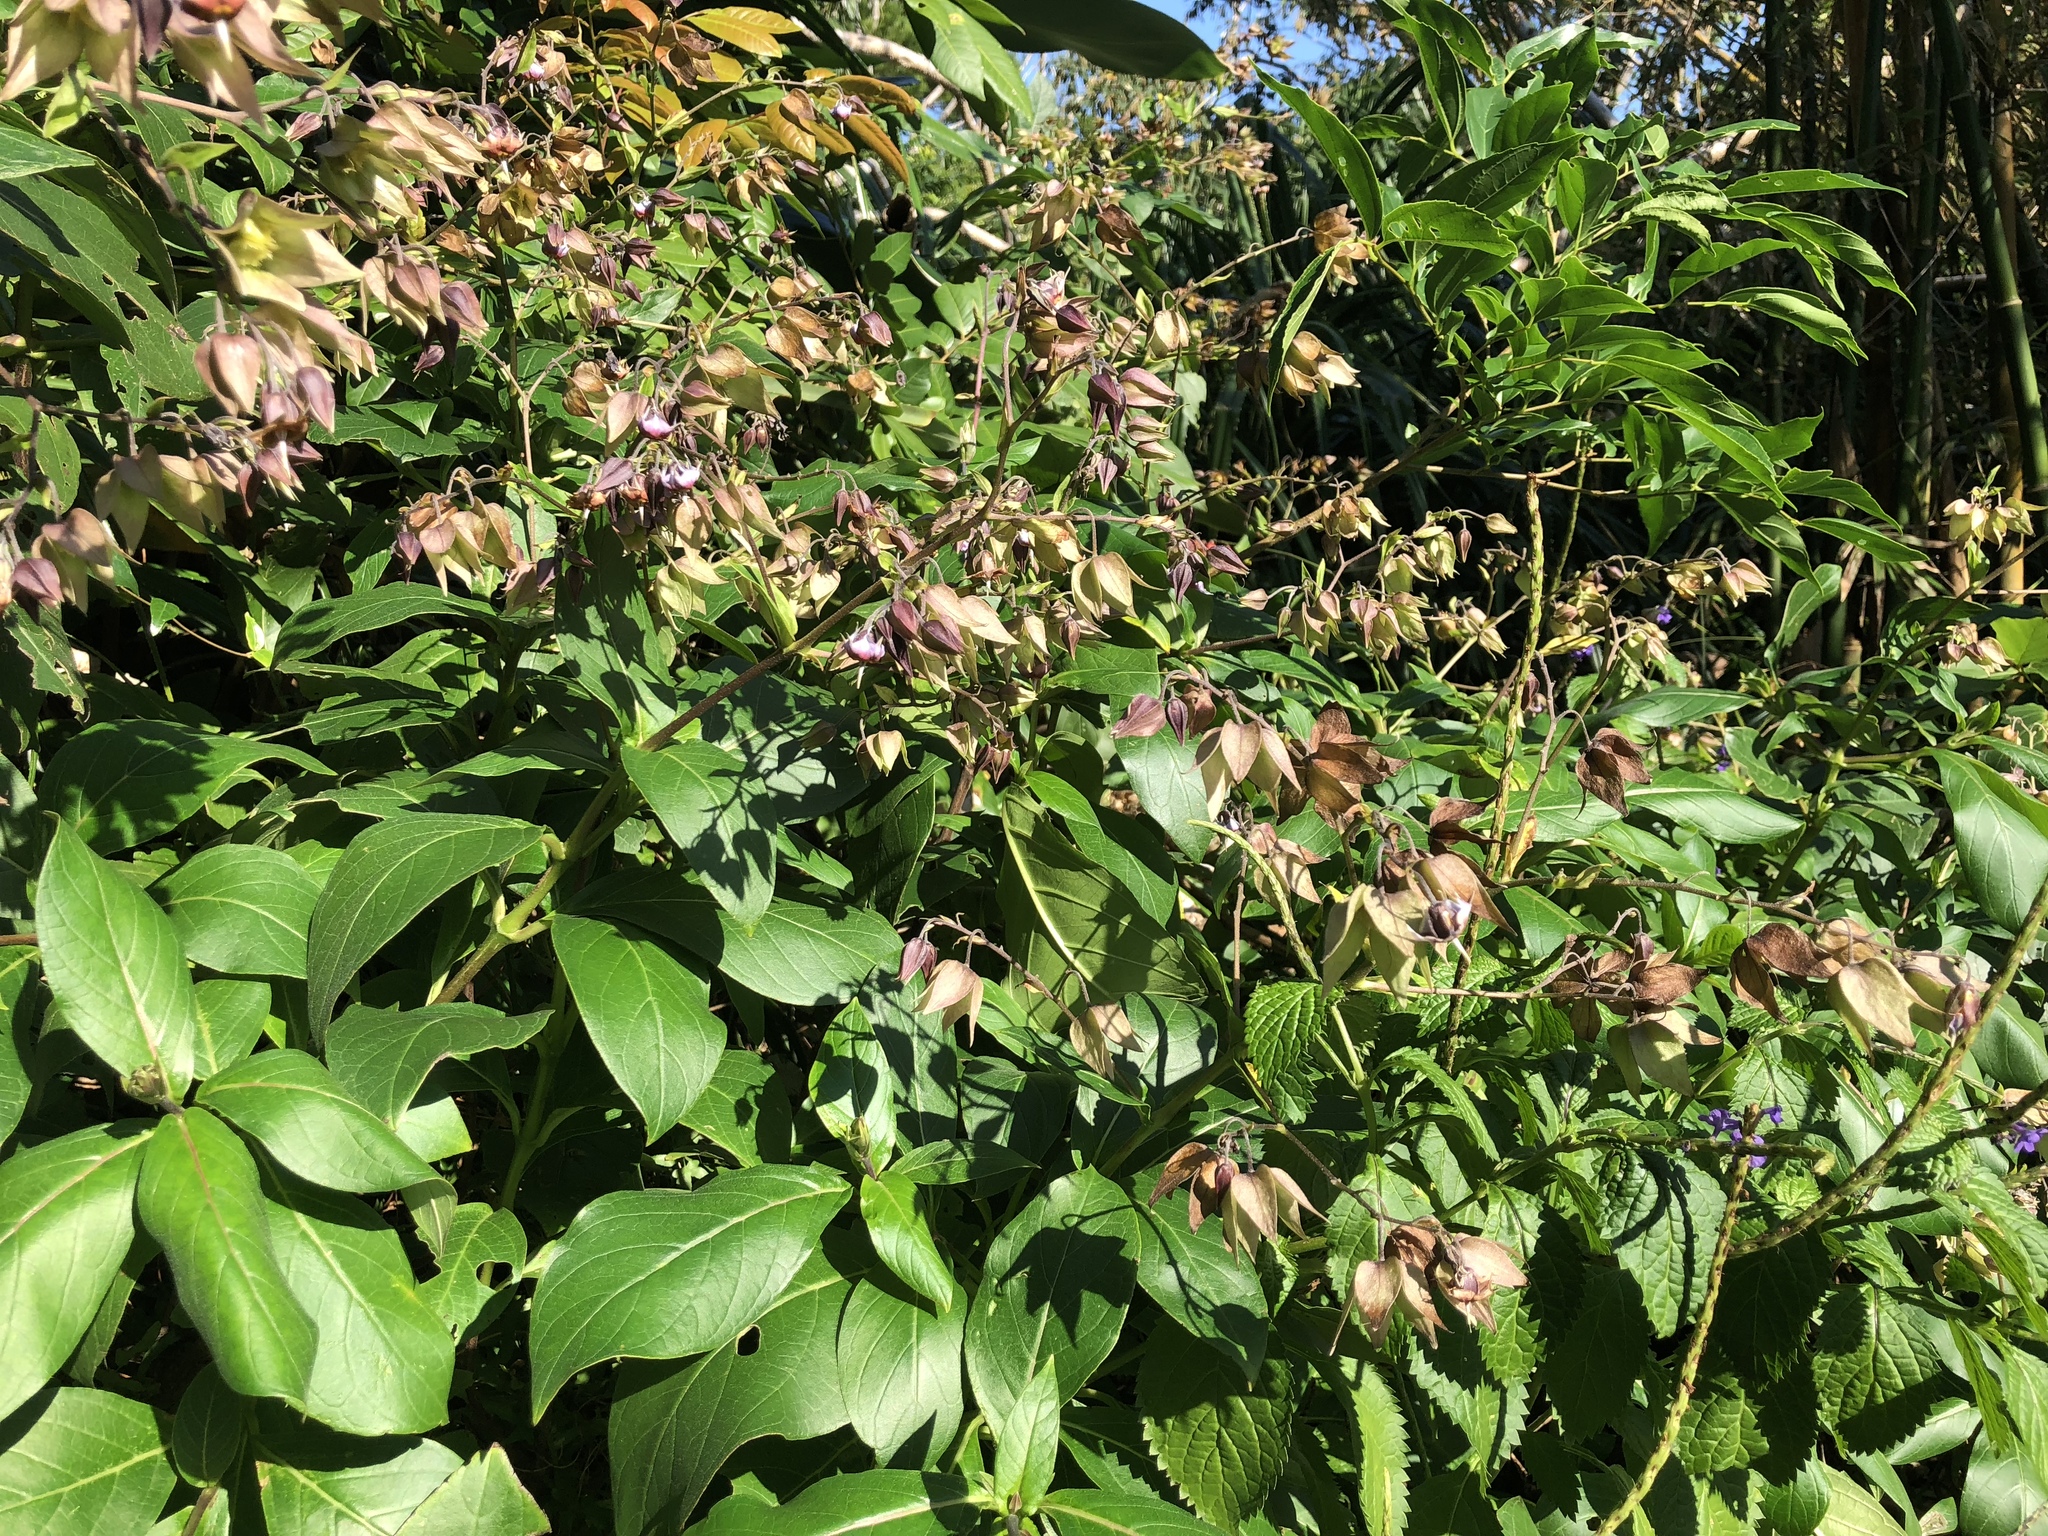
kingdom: Plantae
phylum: Tracheophyta
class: Magnoliopsida
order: Boraginales
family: Boraginaceae
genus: Trichodesma
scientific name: Trichodesma calycosum
